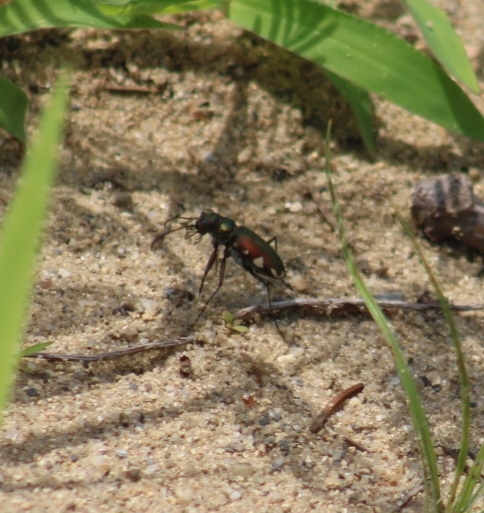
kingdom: Animalia
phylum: Arthropoda
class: Insecta
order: Coleoptera
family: Carabidae
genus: Cicindela
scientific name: Cicindela scutellaris
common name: Festive tiger beetle
